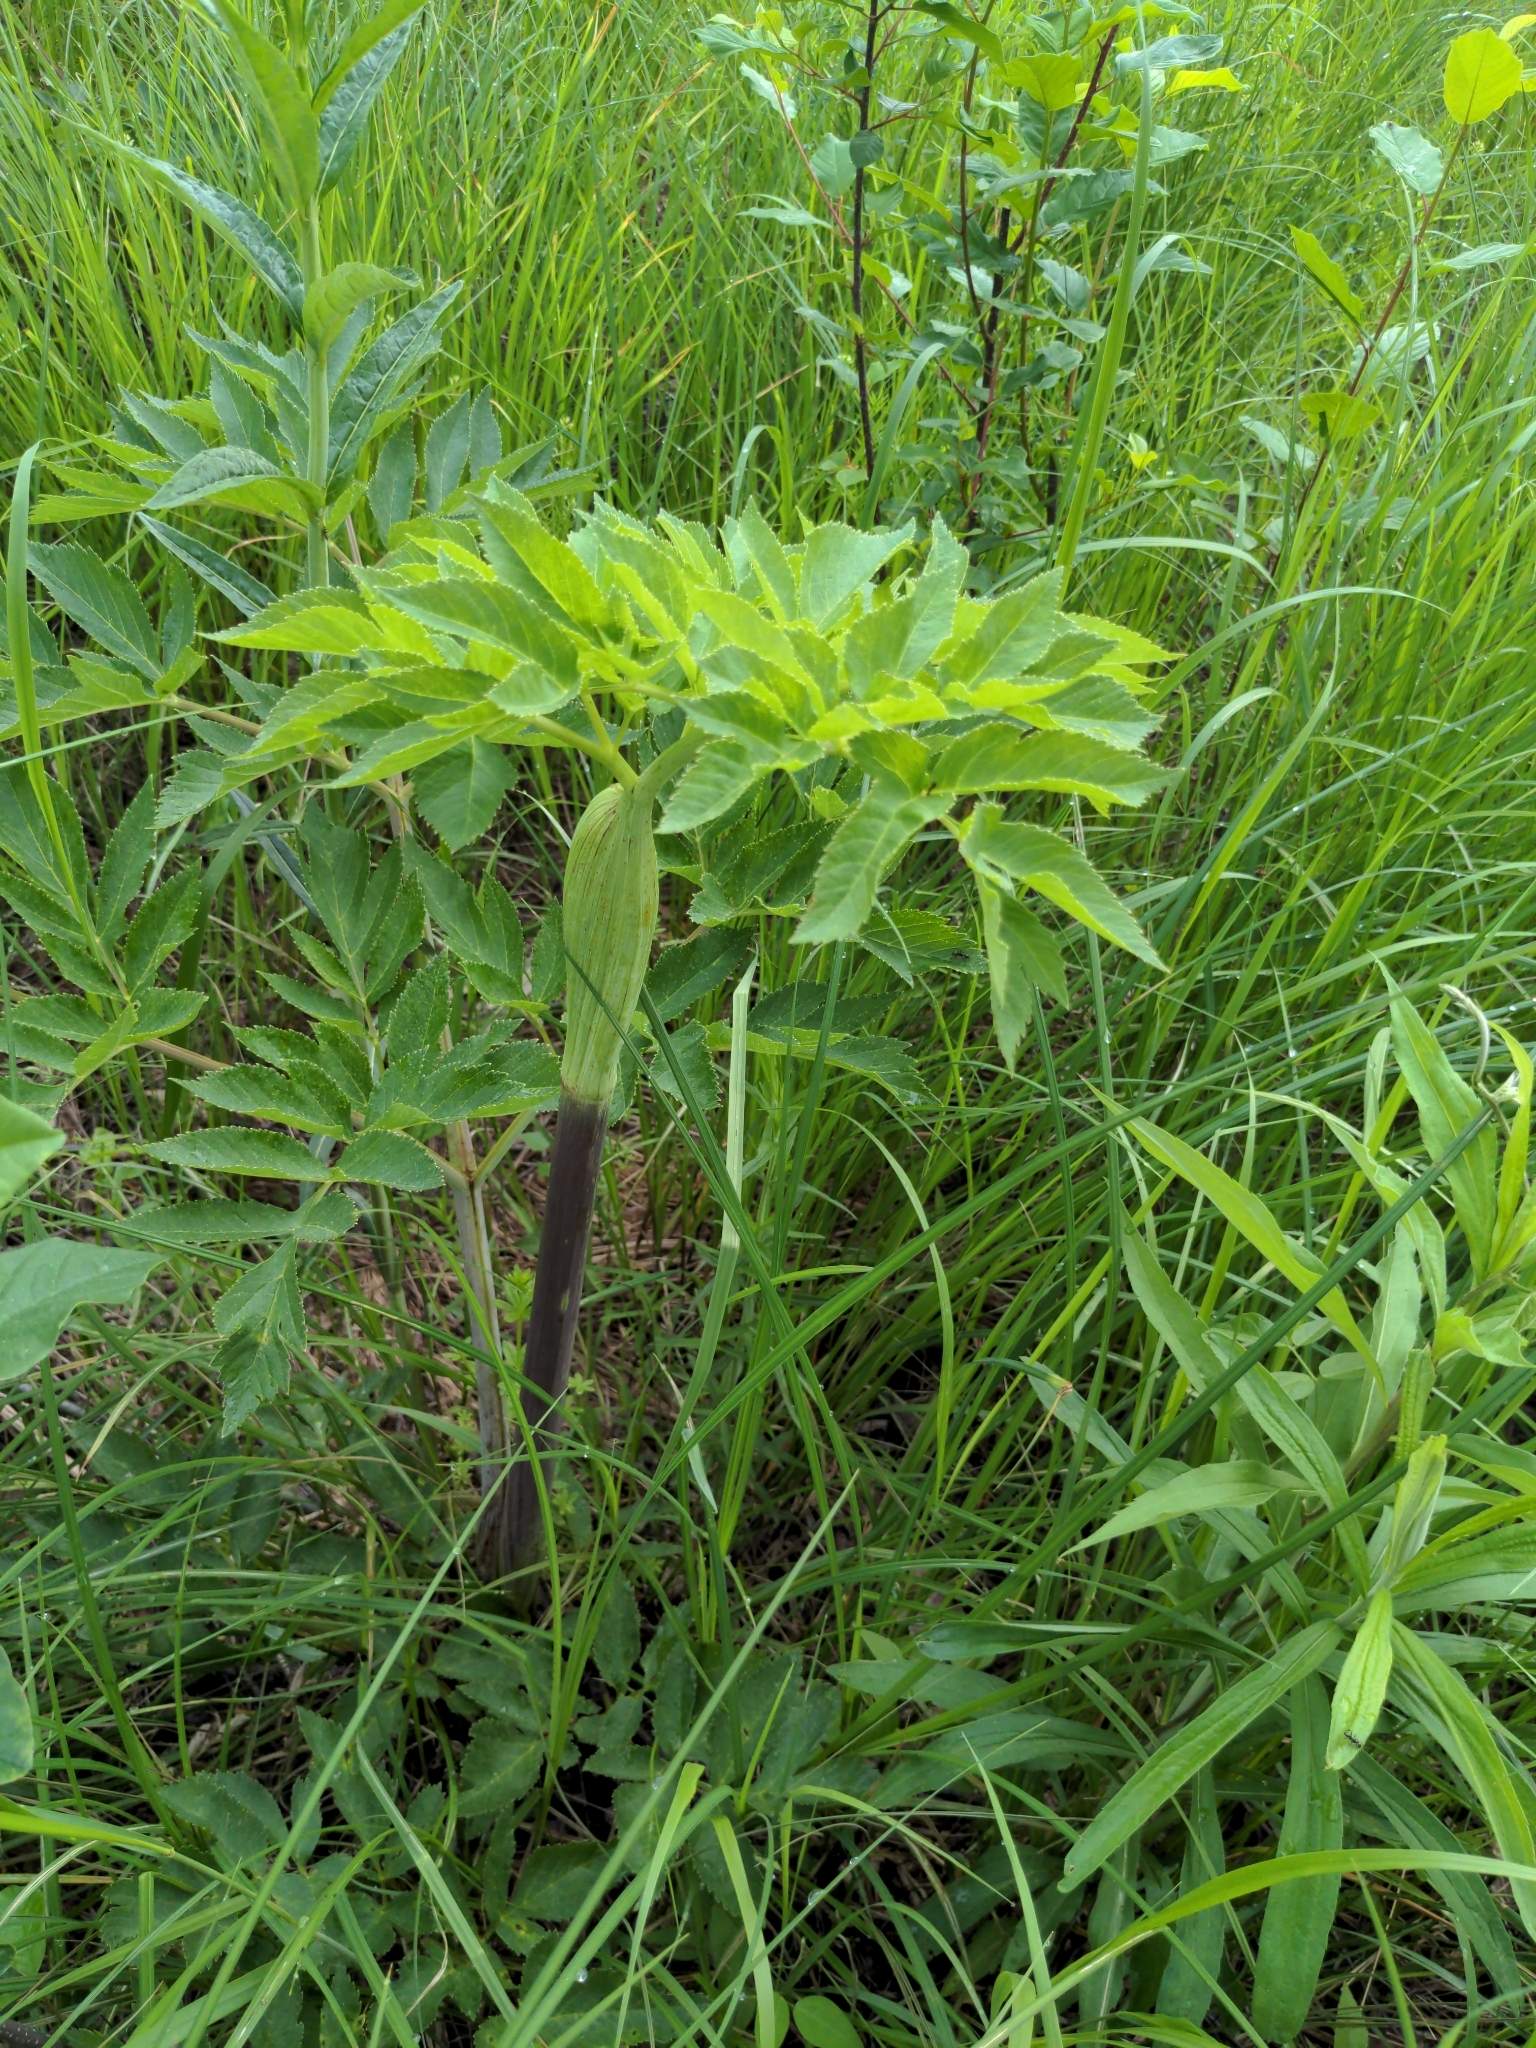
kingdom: Plantae
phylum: Tracheophyta
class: Magnoliopsida
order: Apiales
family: Apiaceae
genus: Pastinaca
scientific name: Pastinaca sativa
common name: Wild parsnip
